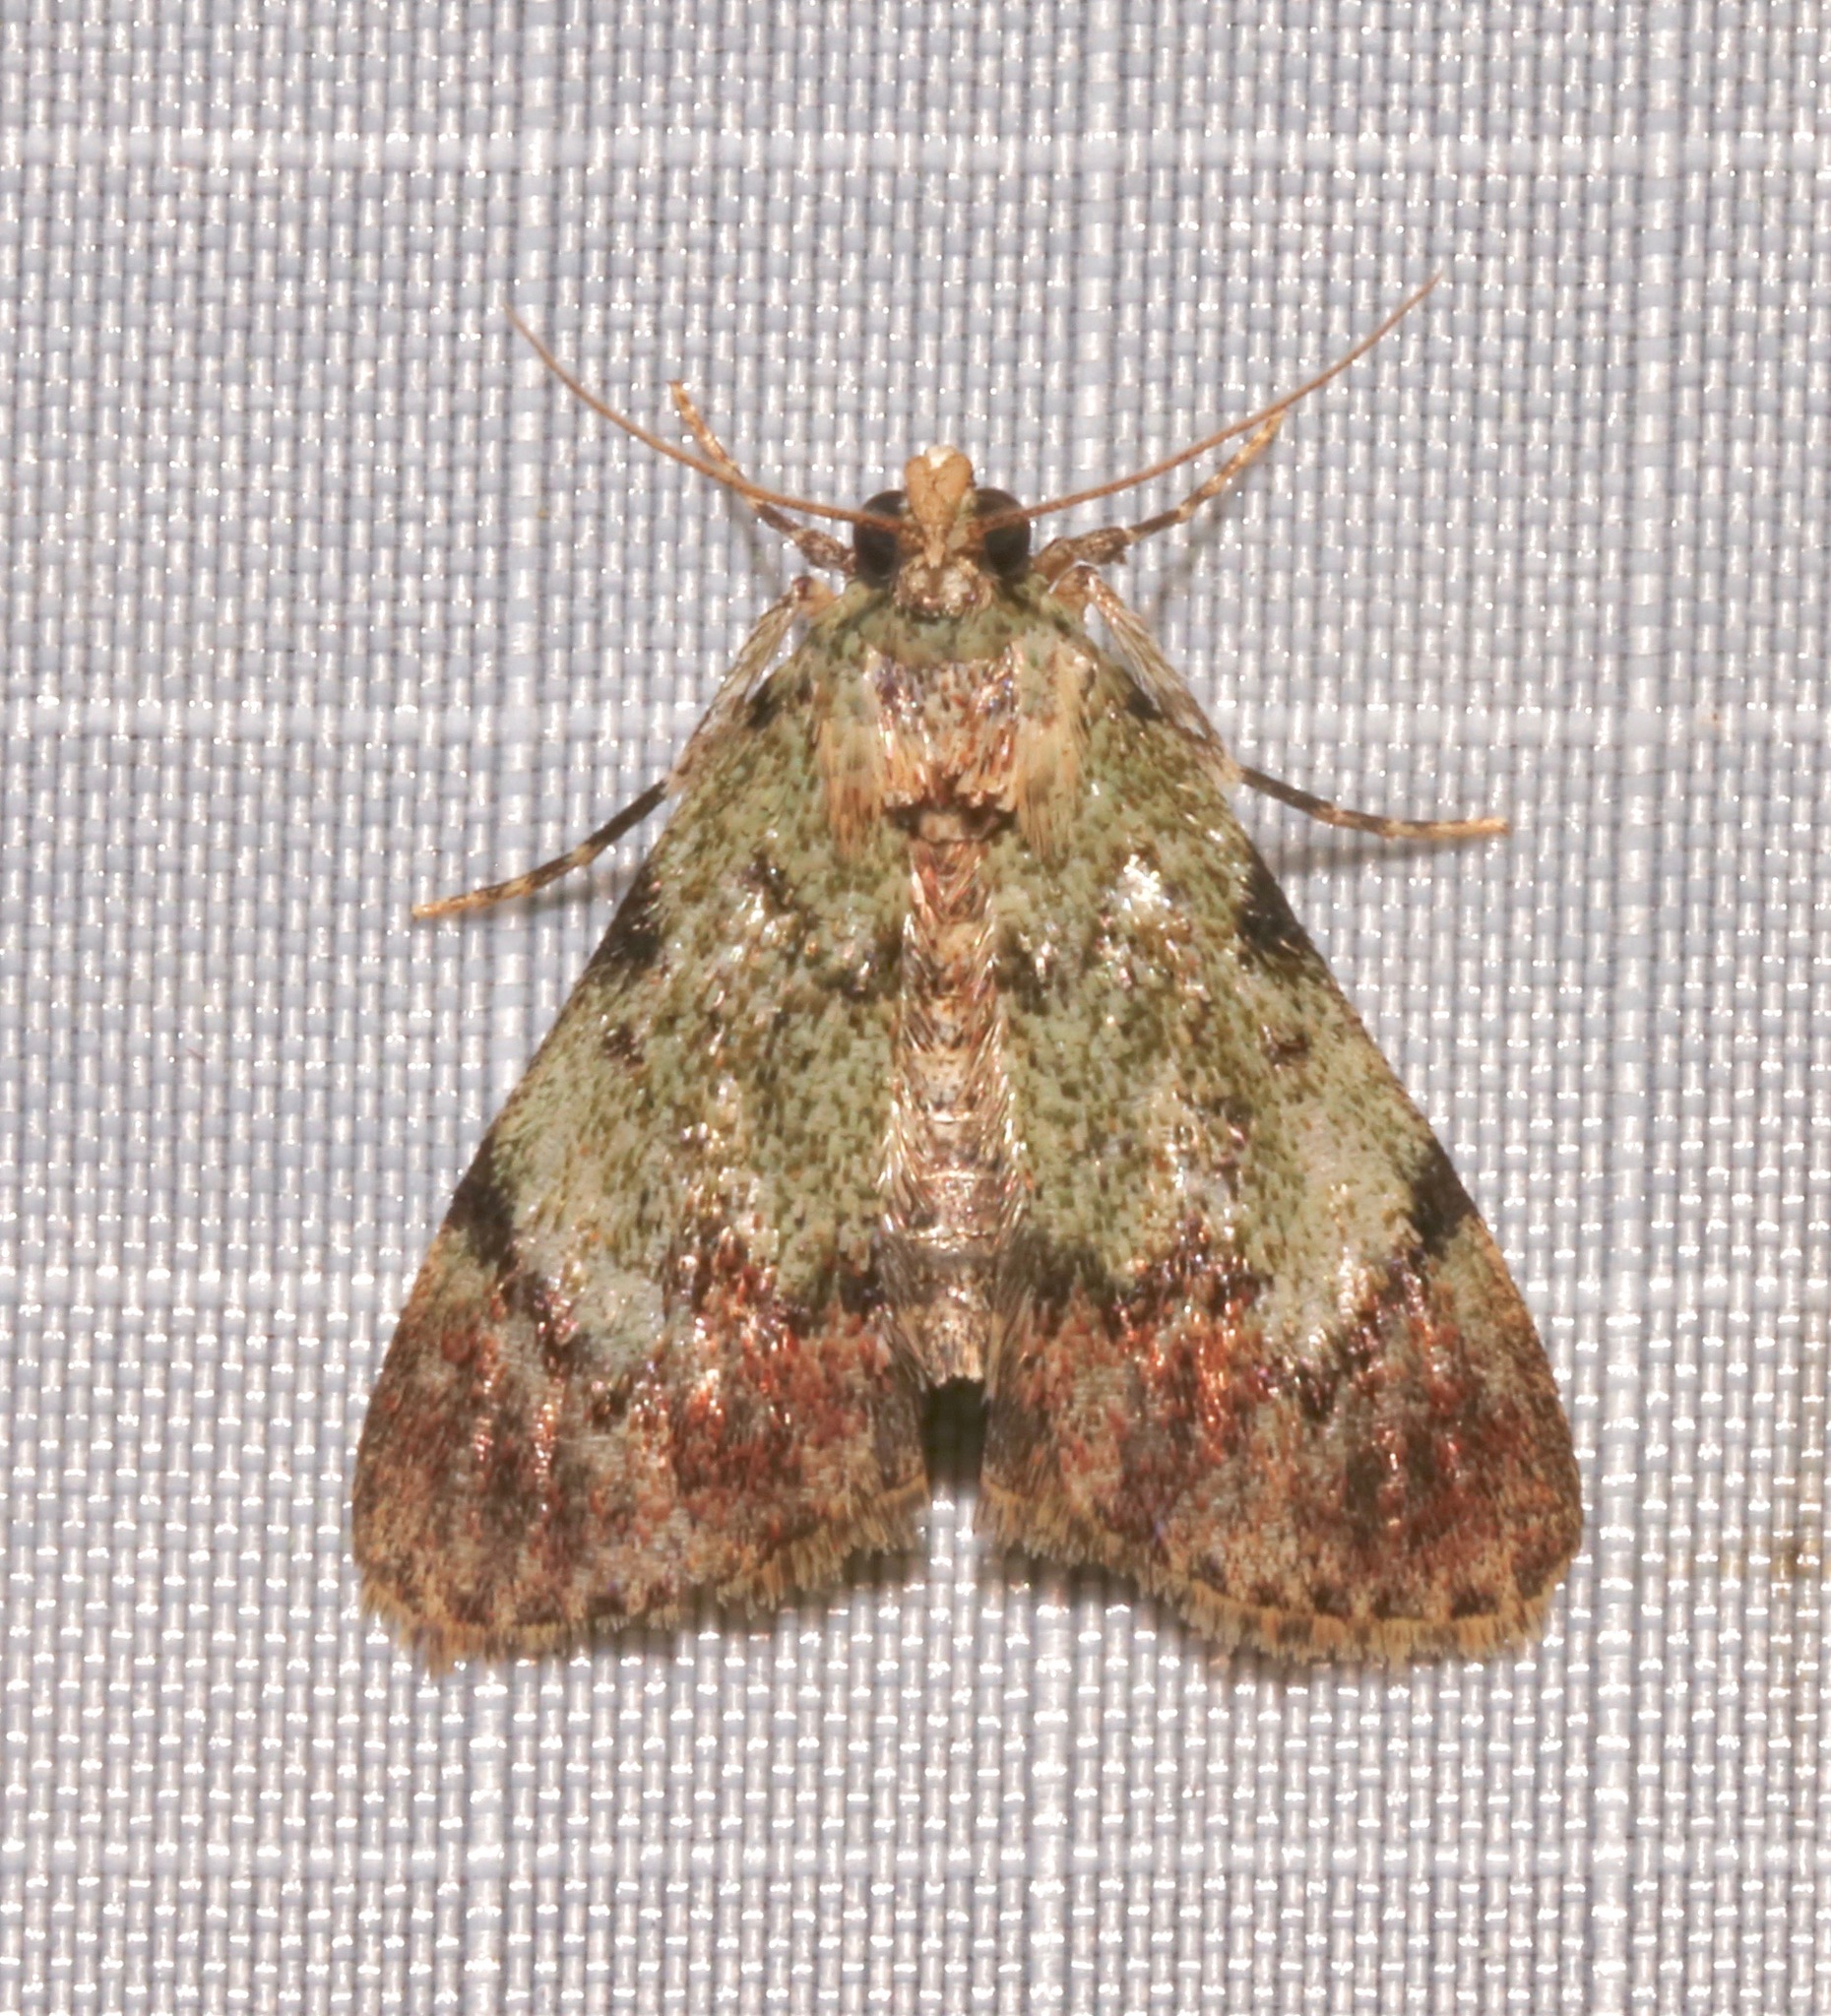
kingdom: Animalia
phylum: Arthropoda
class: Insecta
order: Lepidoptera
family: Pyralidae
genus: Epipaschia
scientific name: Epipaschia superatalis
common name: Dimorphic macalla moth
